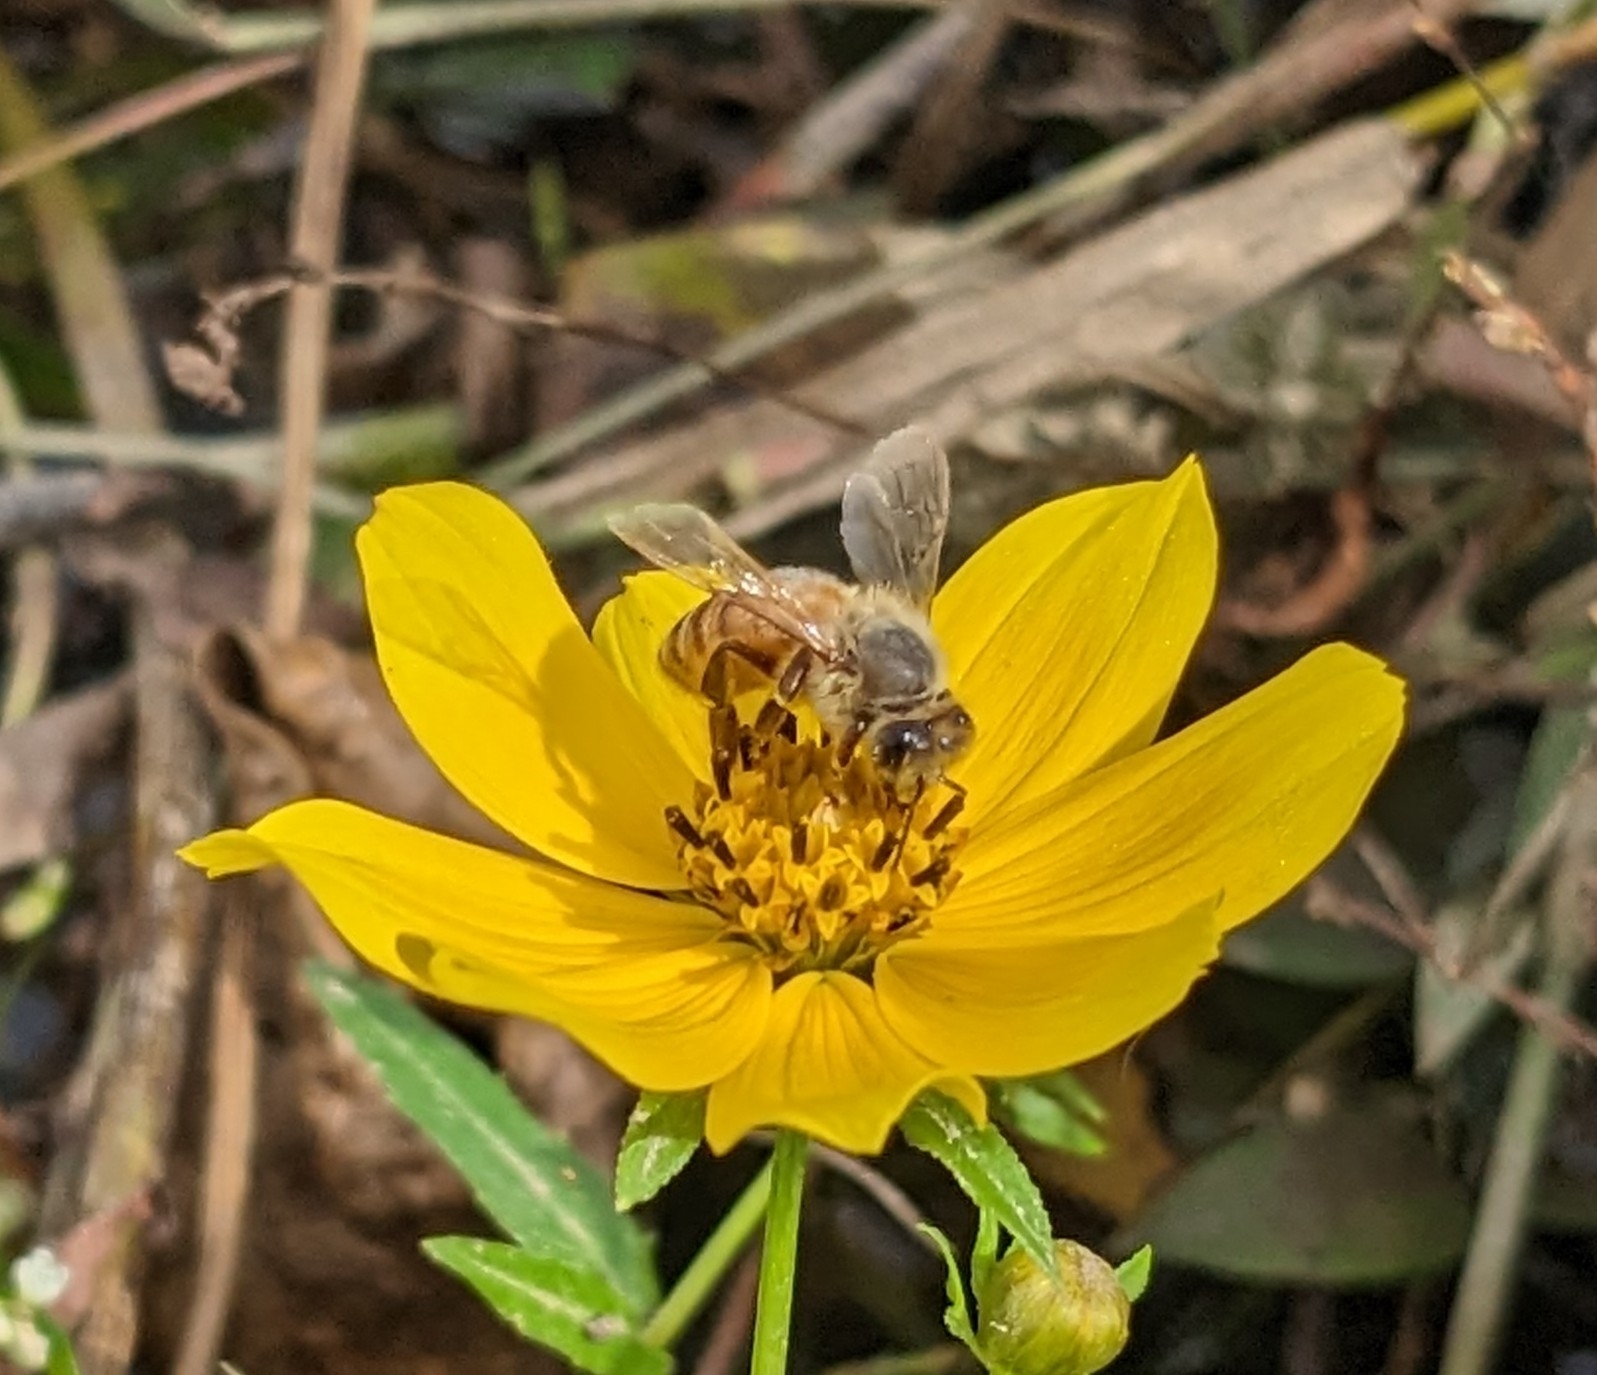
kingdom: Animalia
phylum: Arthropoda
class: Insecta
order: Hymenoptera
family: Apidae
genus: Apis
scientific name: Apis mellifera
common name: Honey bee
